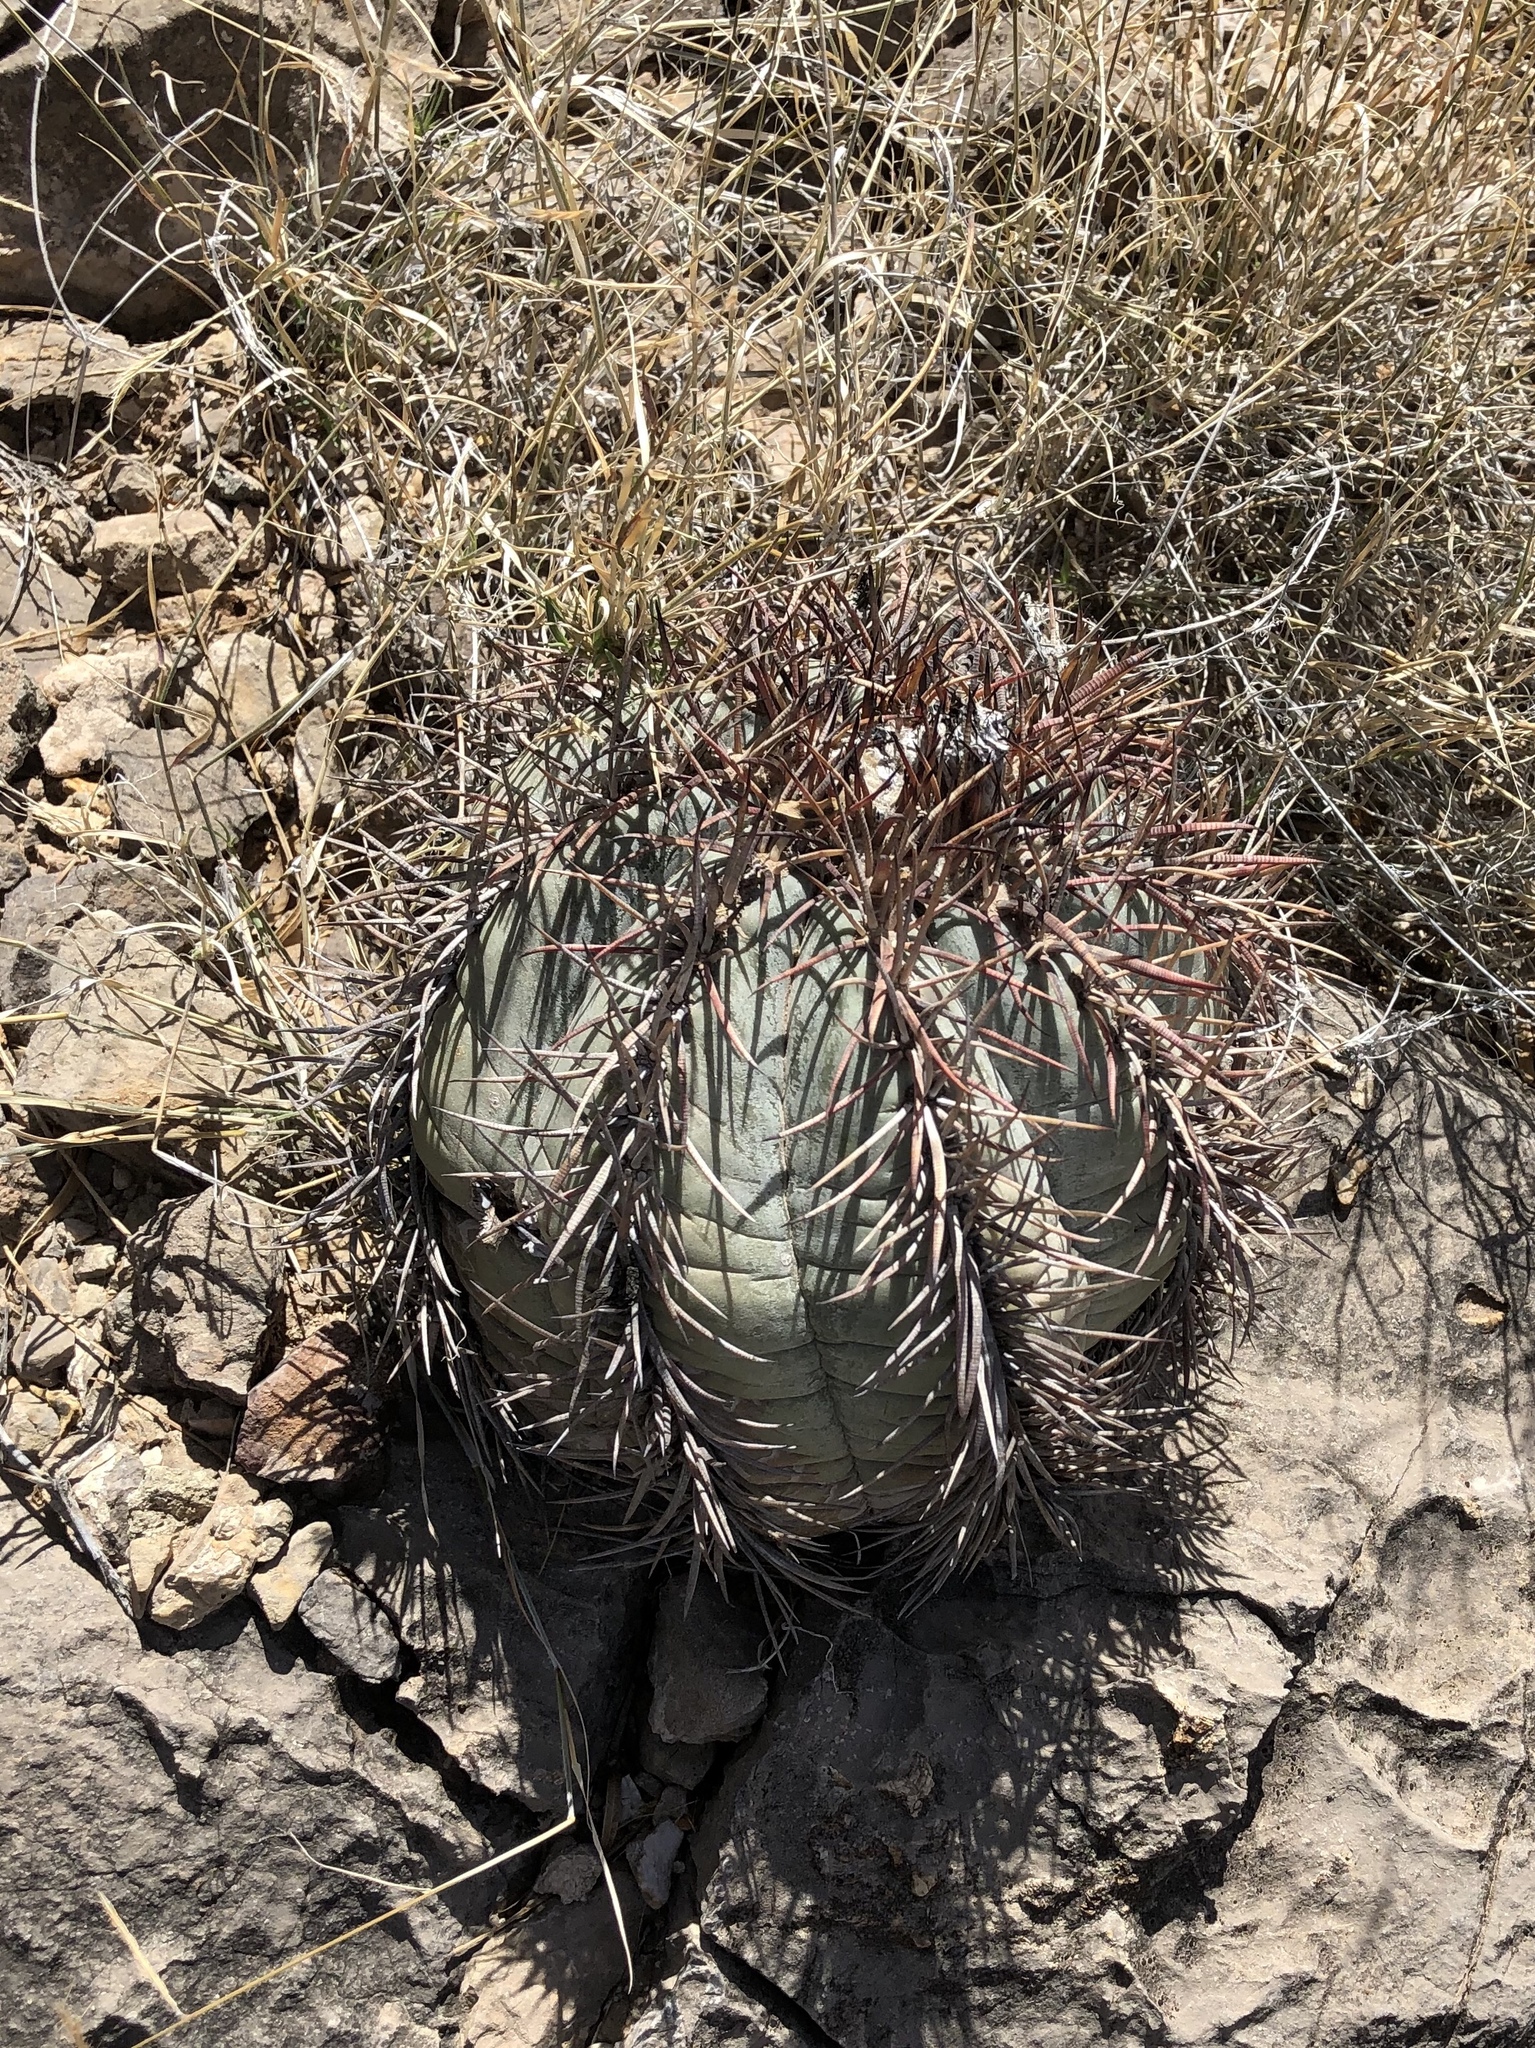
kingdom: Plantae
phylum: Tracheophyta
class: Magnoliopsida
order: Caryophyllales
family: Cactaceae
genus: Echinocactus
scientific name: Echinocactus horizonthalonius
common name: Devilshead
